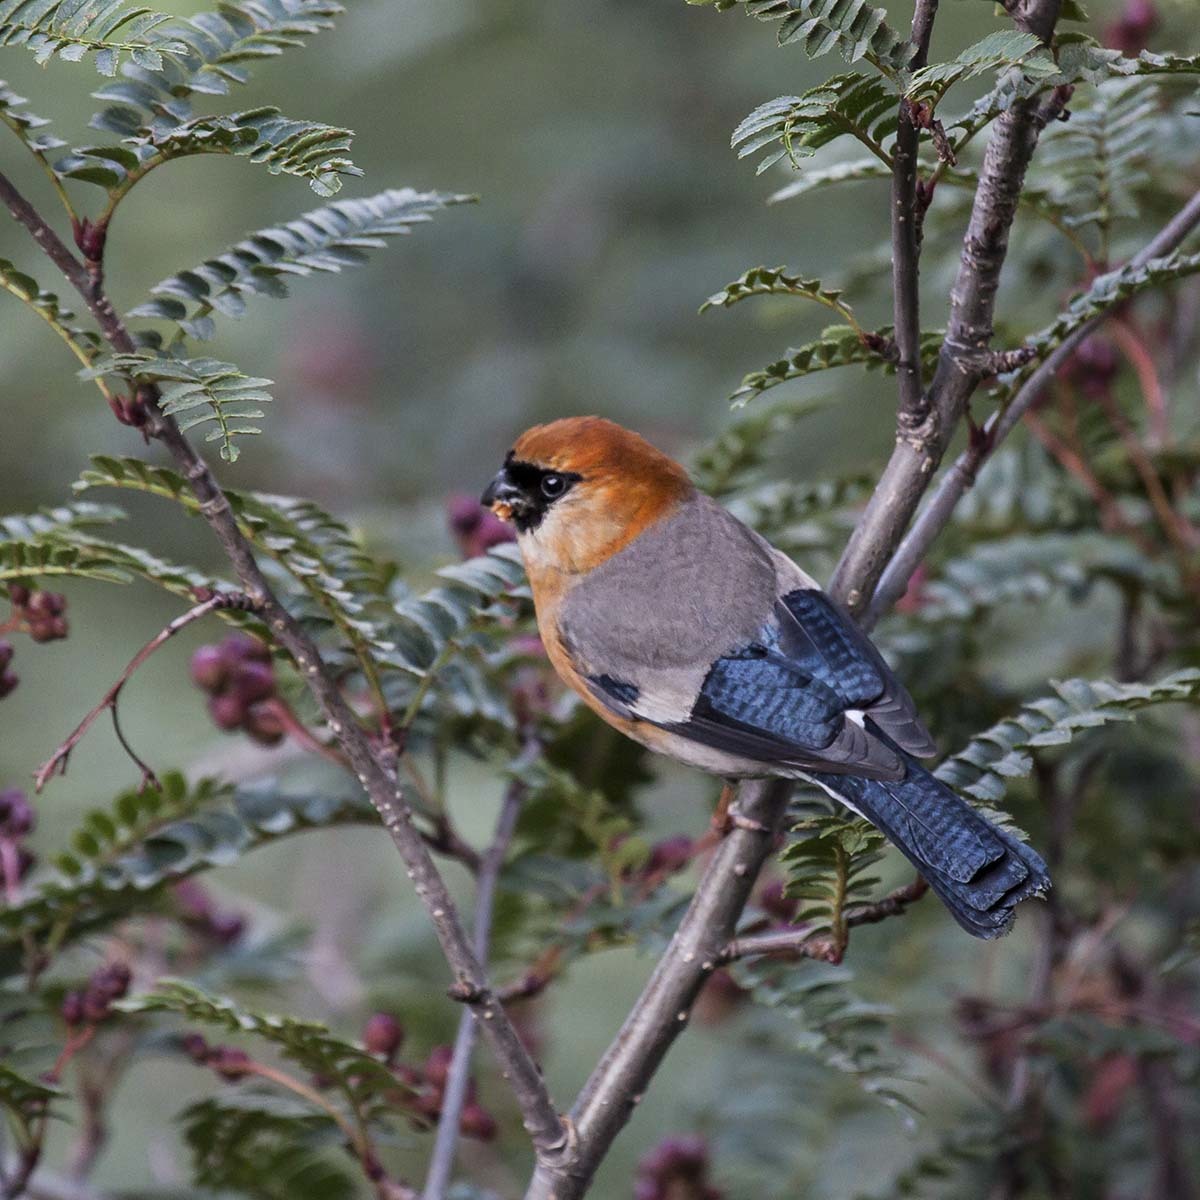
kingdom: Animalia
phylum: Chordata
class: Aves
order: Passeriformes
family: Fringillidae
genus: Pyrrhula
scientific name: Pyrrhula erythrocephala
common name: Red-headed bullfinch
